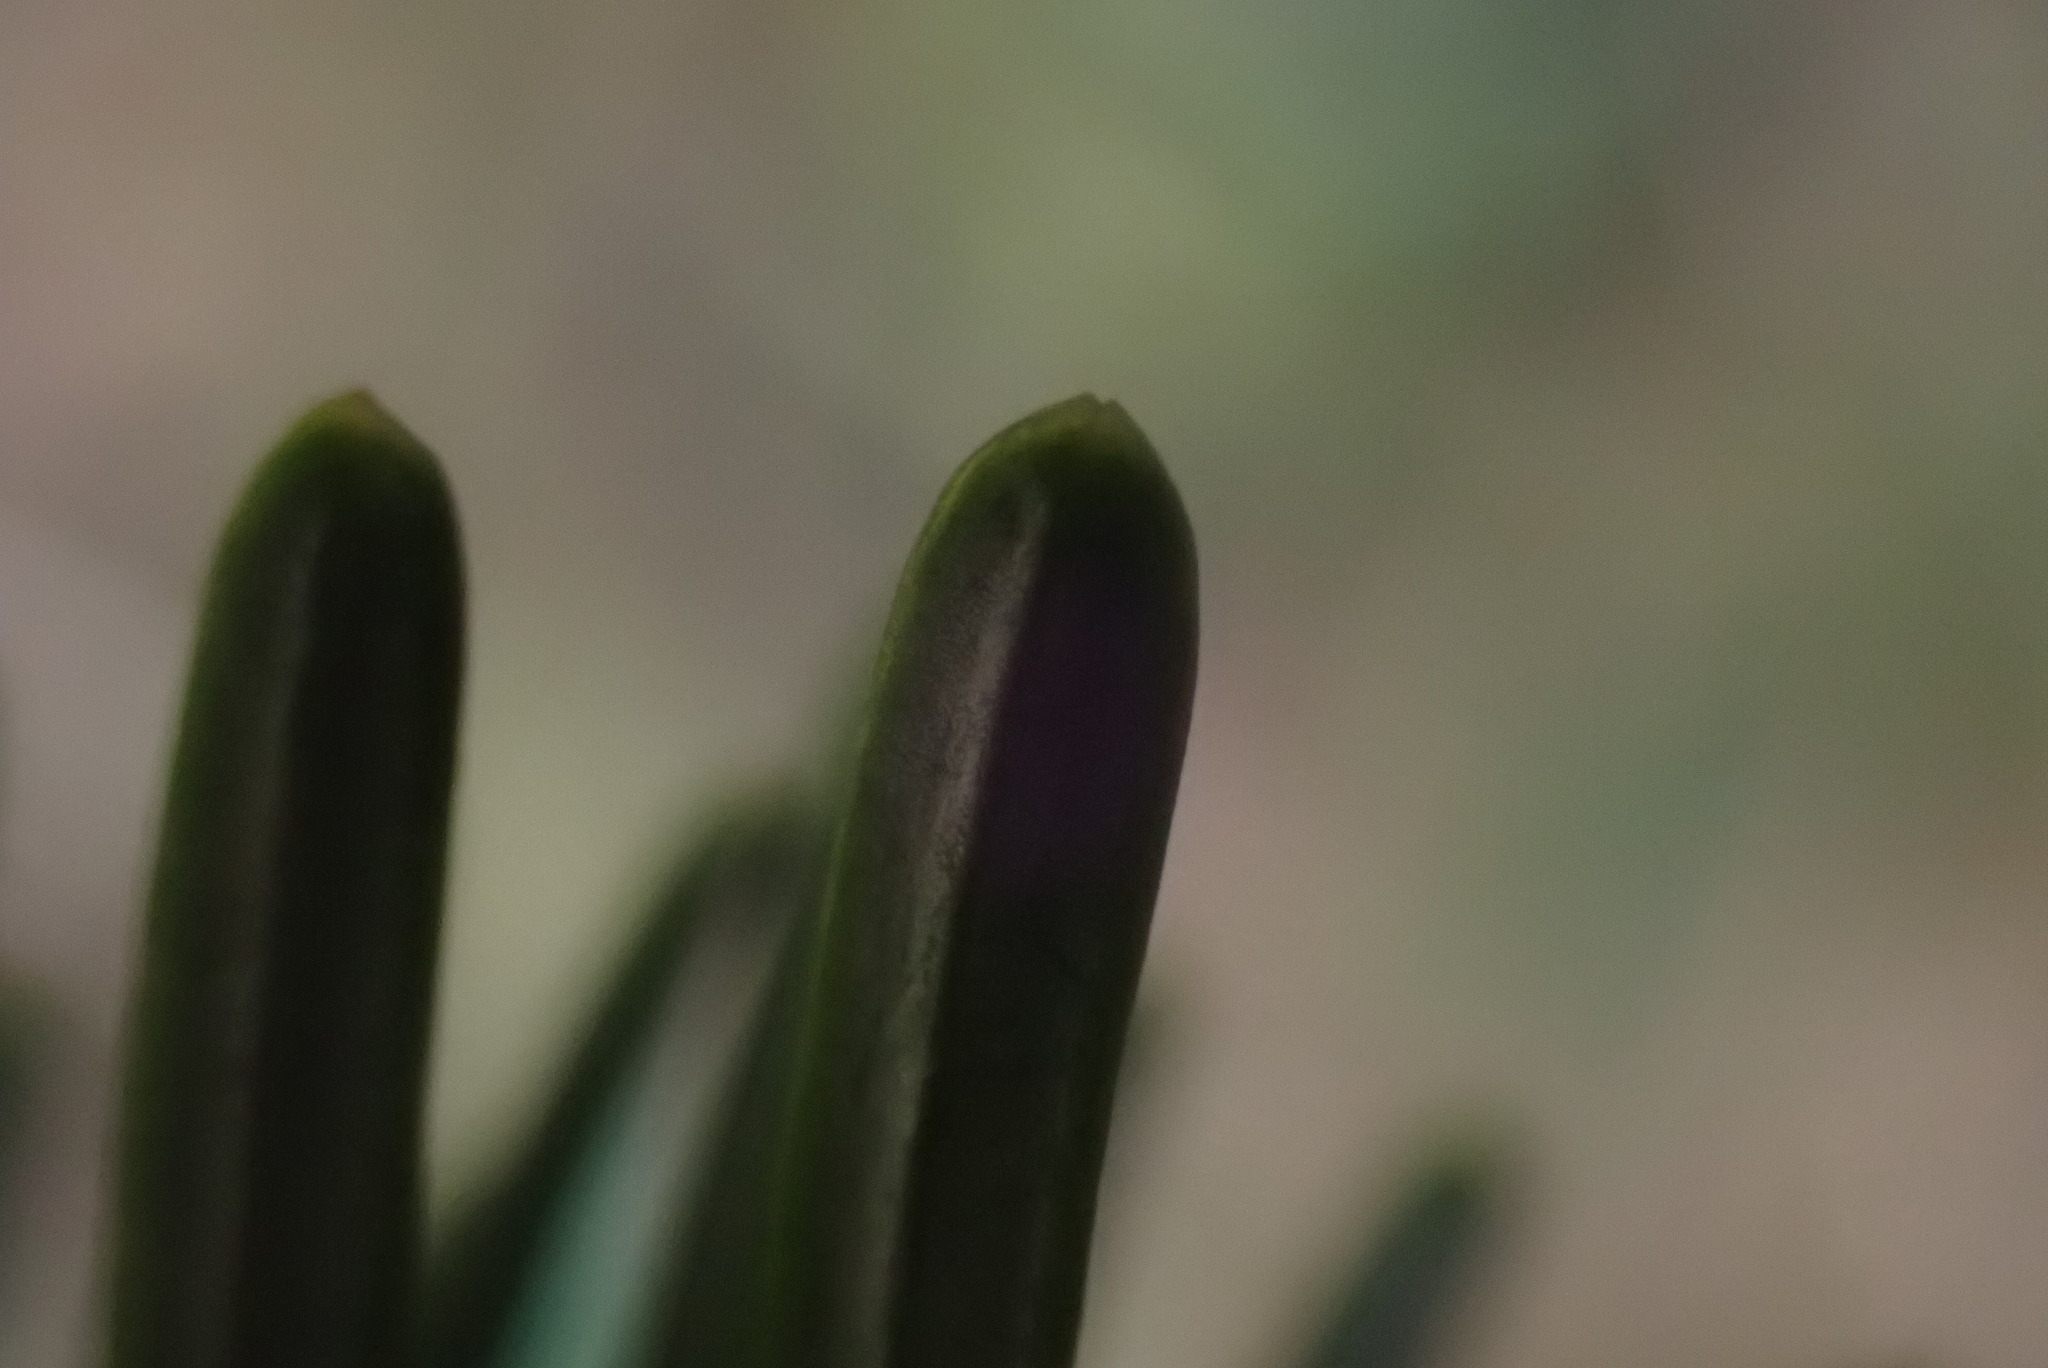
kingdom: Plantae
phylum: Tracheophyta
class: Pinopsida
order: Pinales
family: Pinaceae
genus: Abies
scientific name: Abies amabilis
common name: Pacific silver fir
